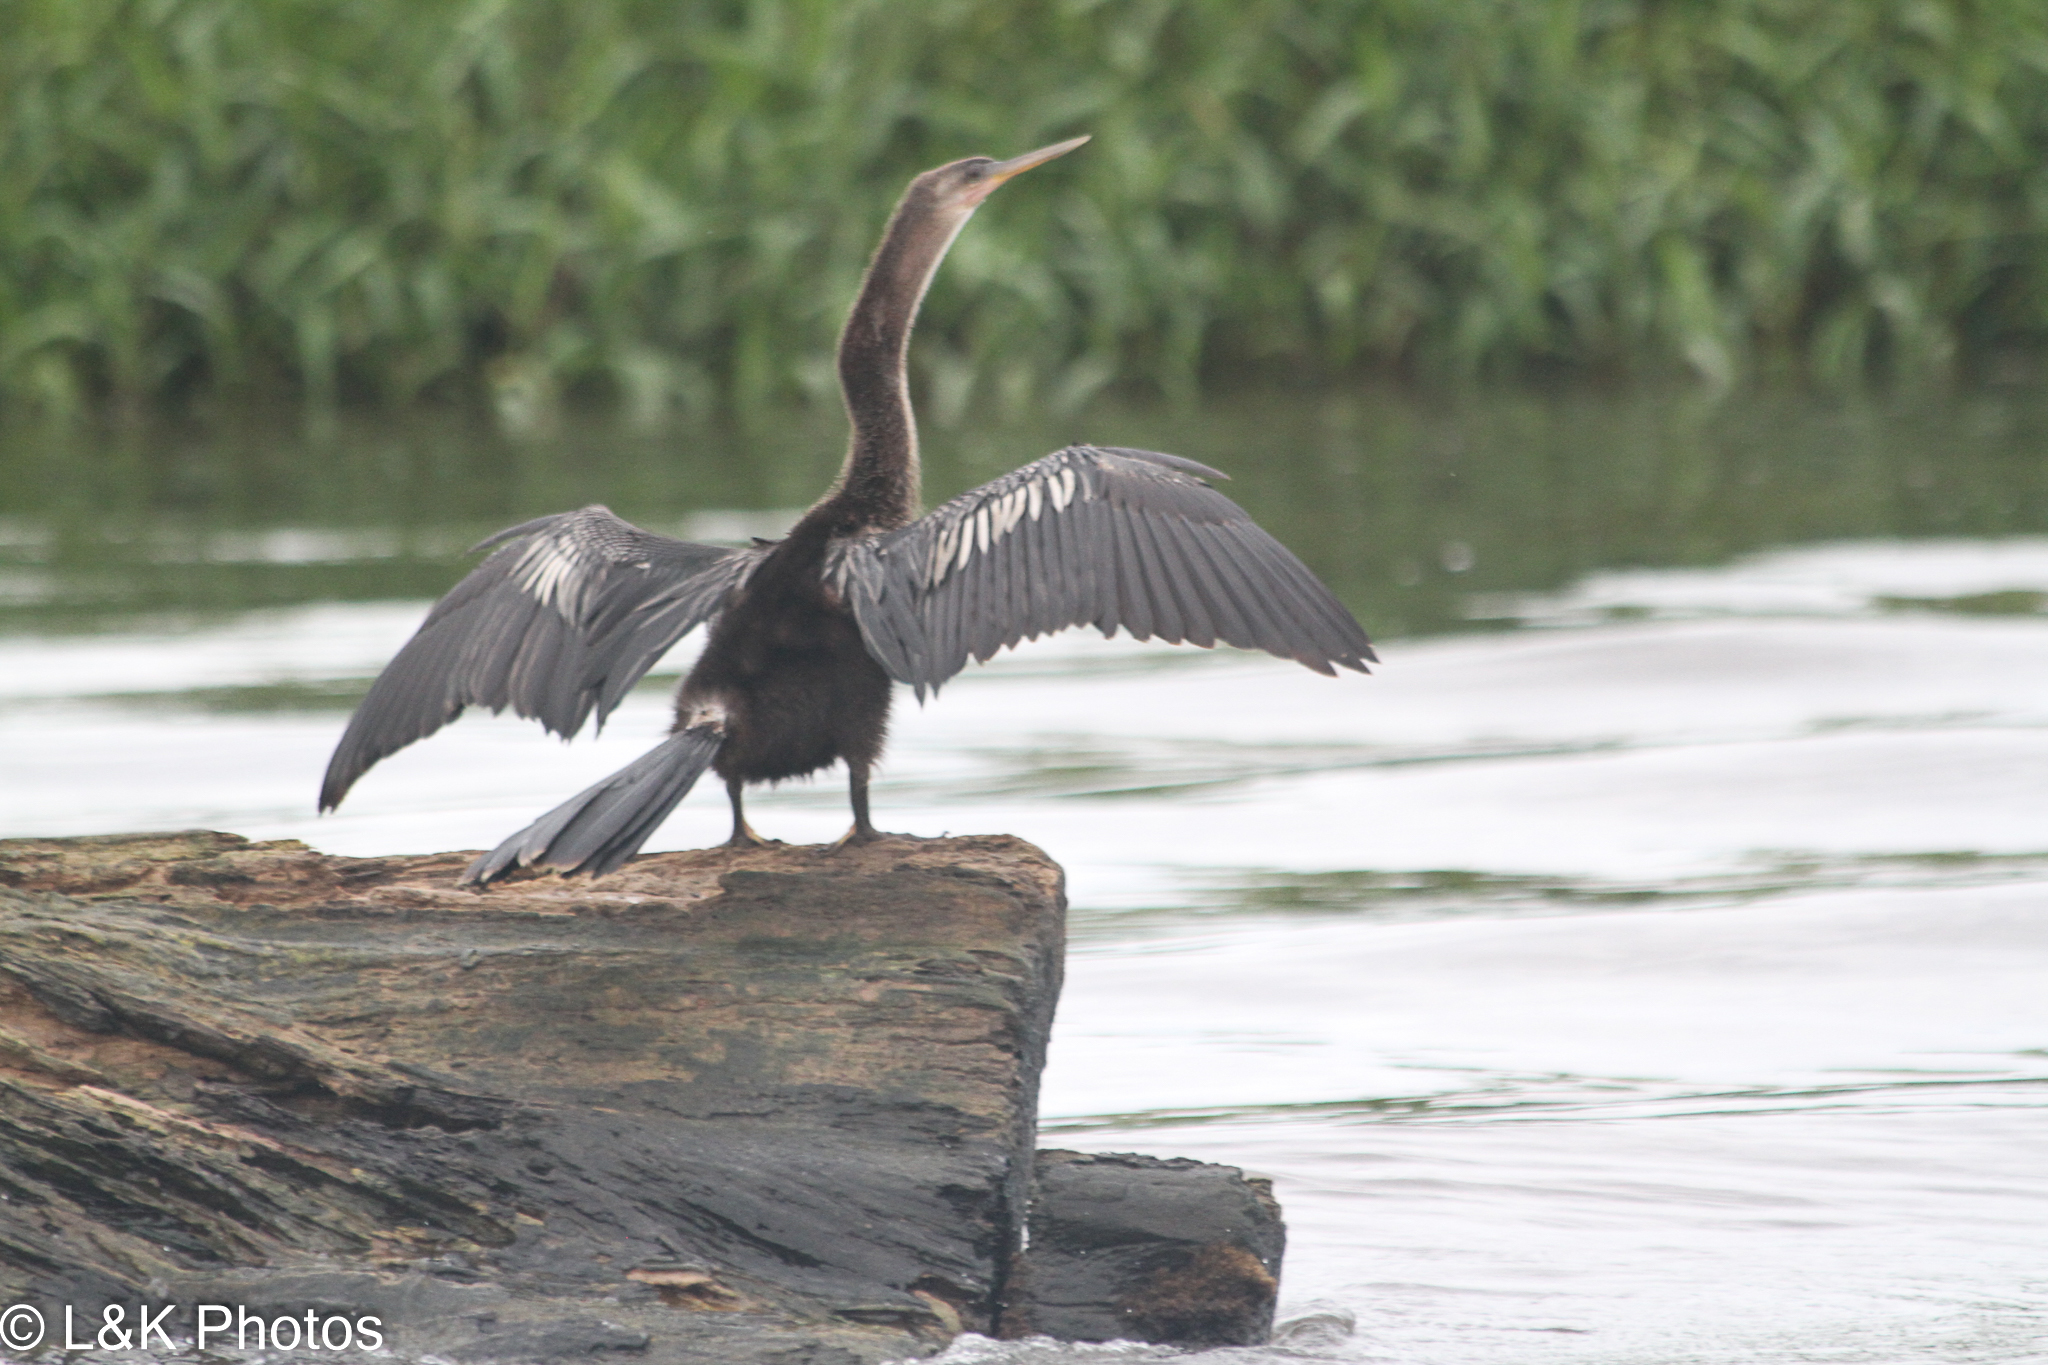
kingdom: Animalia
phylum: Chordata
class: Aves
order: Suliformes
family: Anhingidae
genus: Anhinga
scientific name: Anhinga anhinga
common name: Anhinga
